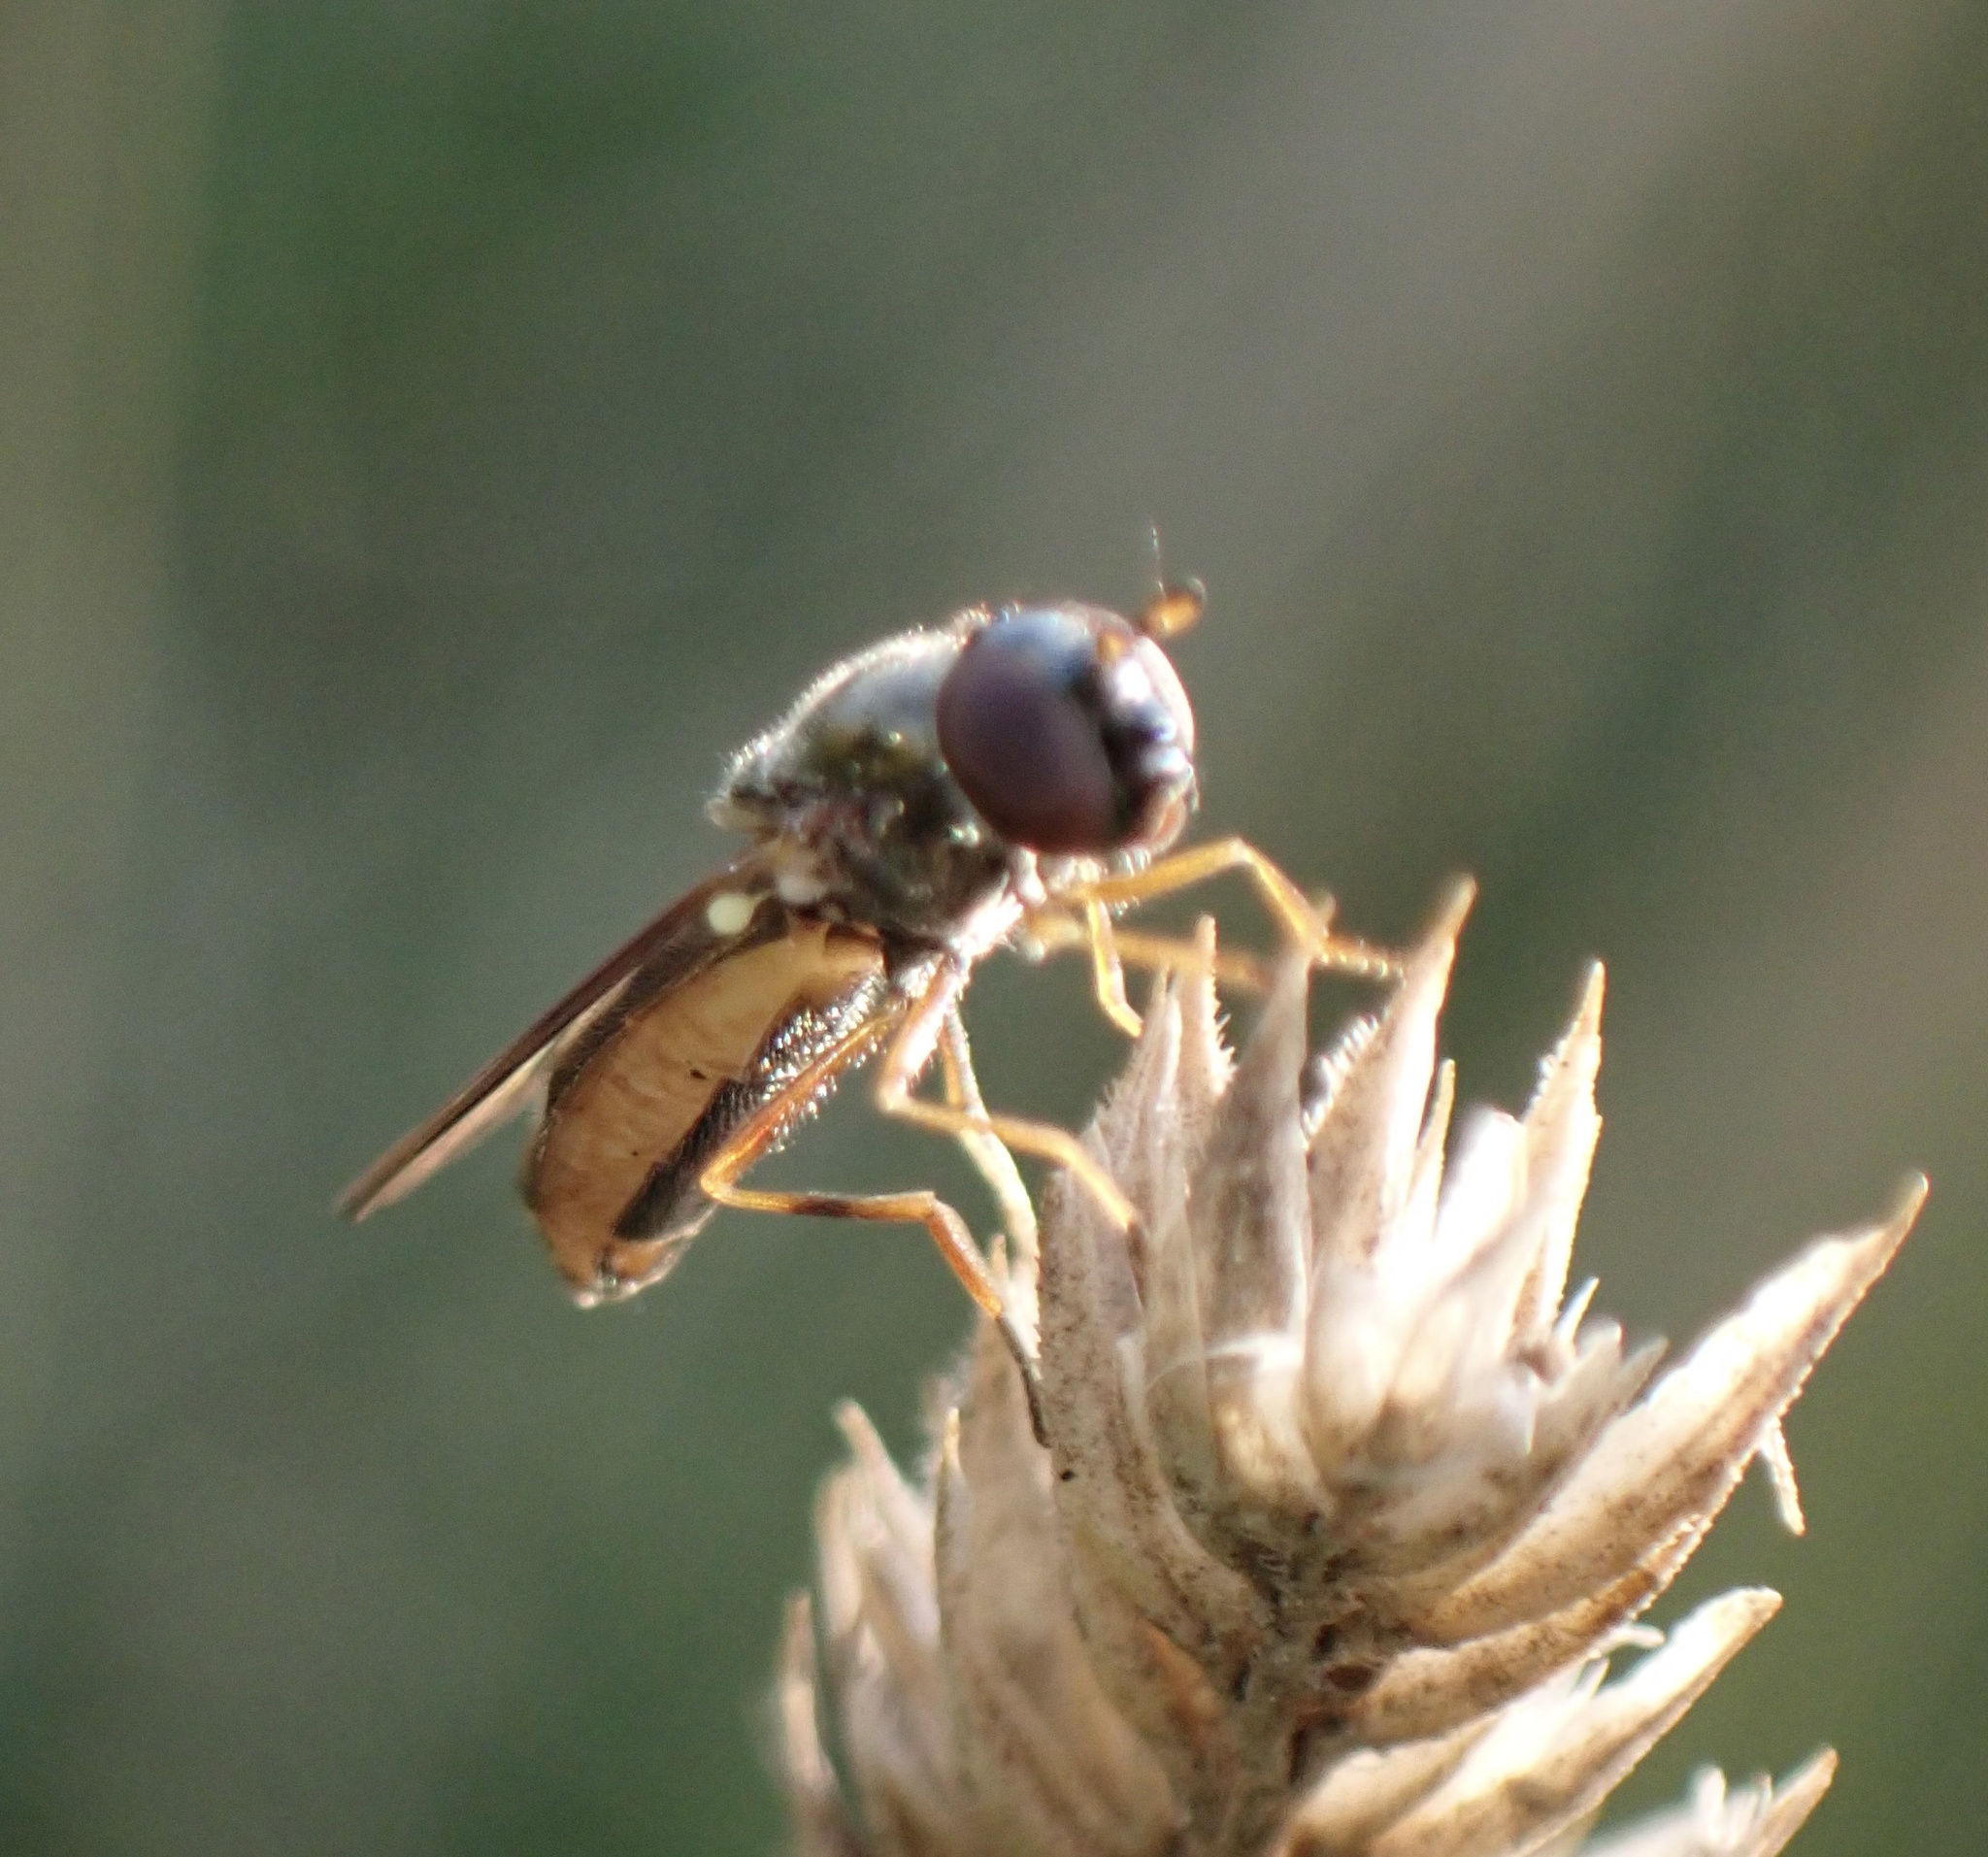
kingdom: Animalia
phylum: Arthropoda
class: Insecta
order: Diptera
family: Syrphidae
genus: Melanostoma
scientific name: Melanostoma
